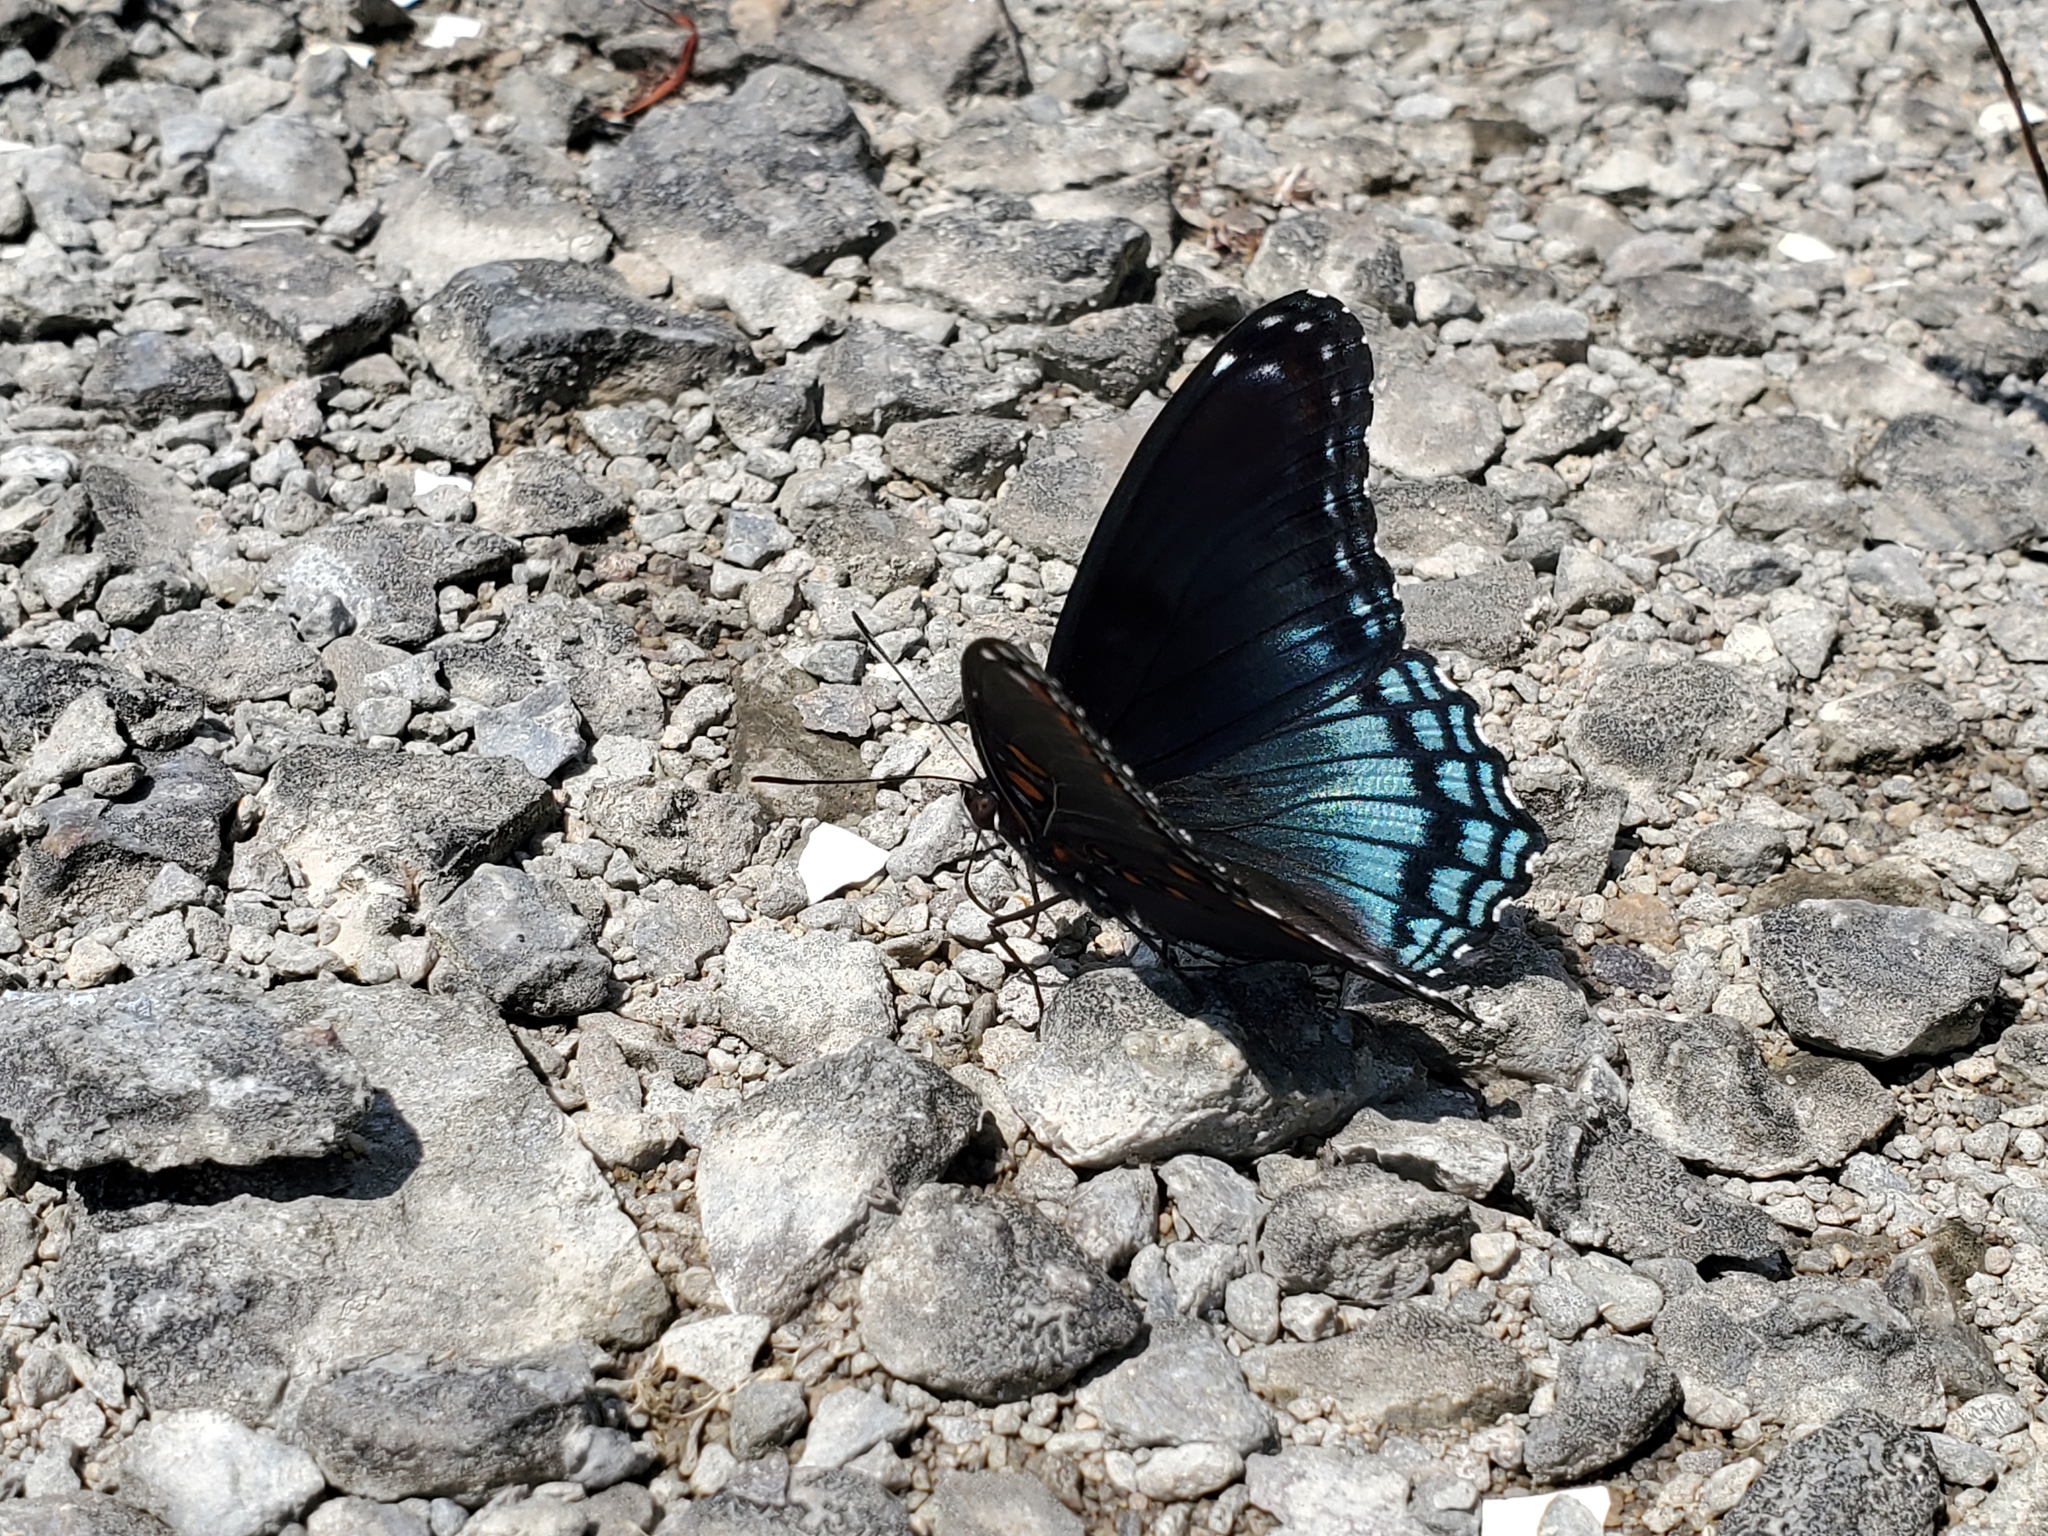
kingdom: Animalia
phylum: Arthropoda
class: Insecta
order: Lepidoptera
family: Nymphalidae
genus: Limenitis
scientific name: Limenitis arthemis
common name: Red-spotted admiral
